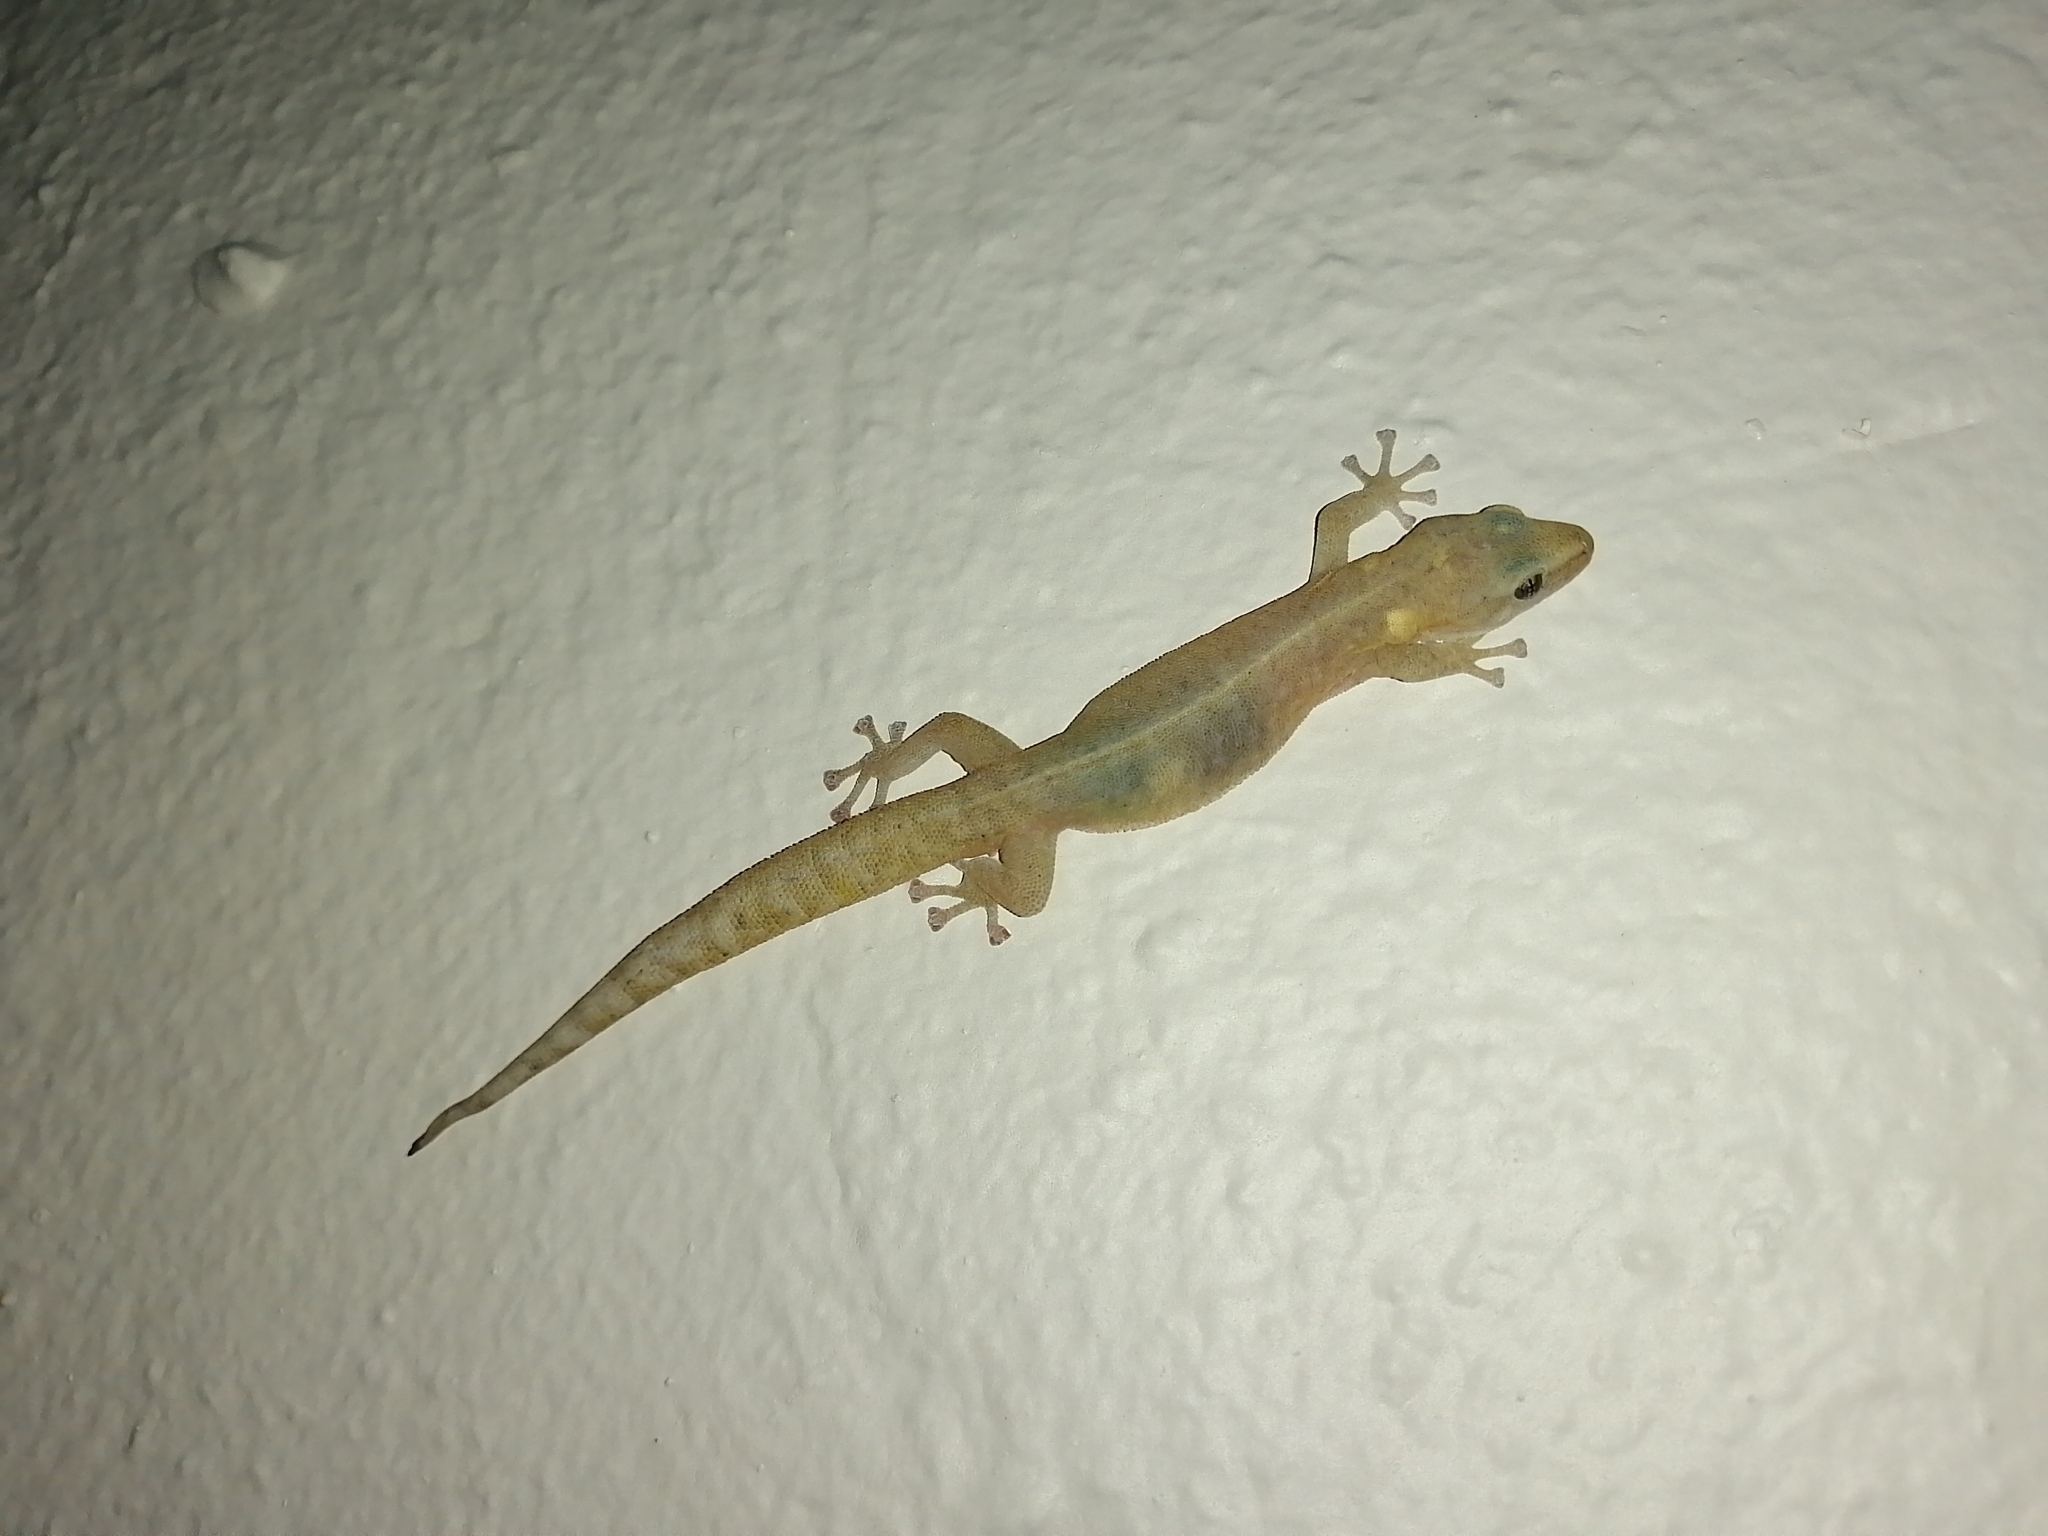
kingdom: Animalia
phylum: Chordata
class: Squamata
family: Gekkonidae
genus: Afrogecko
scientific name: Afrogecko porphyreus
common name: Marbled leaf-toed gecko
